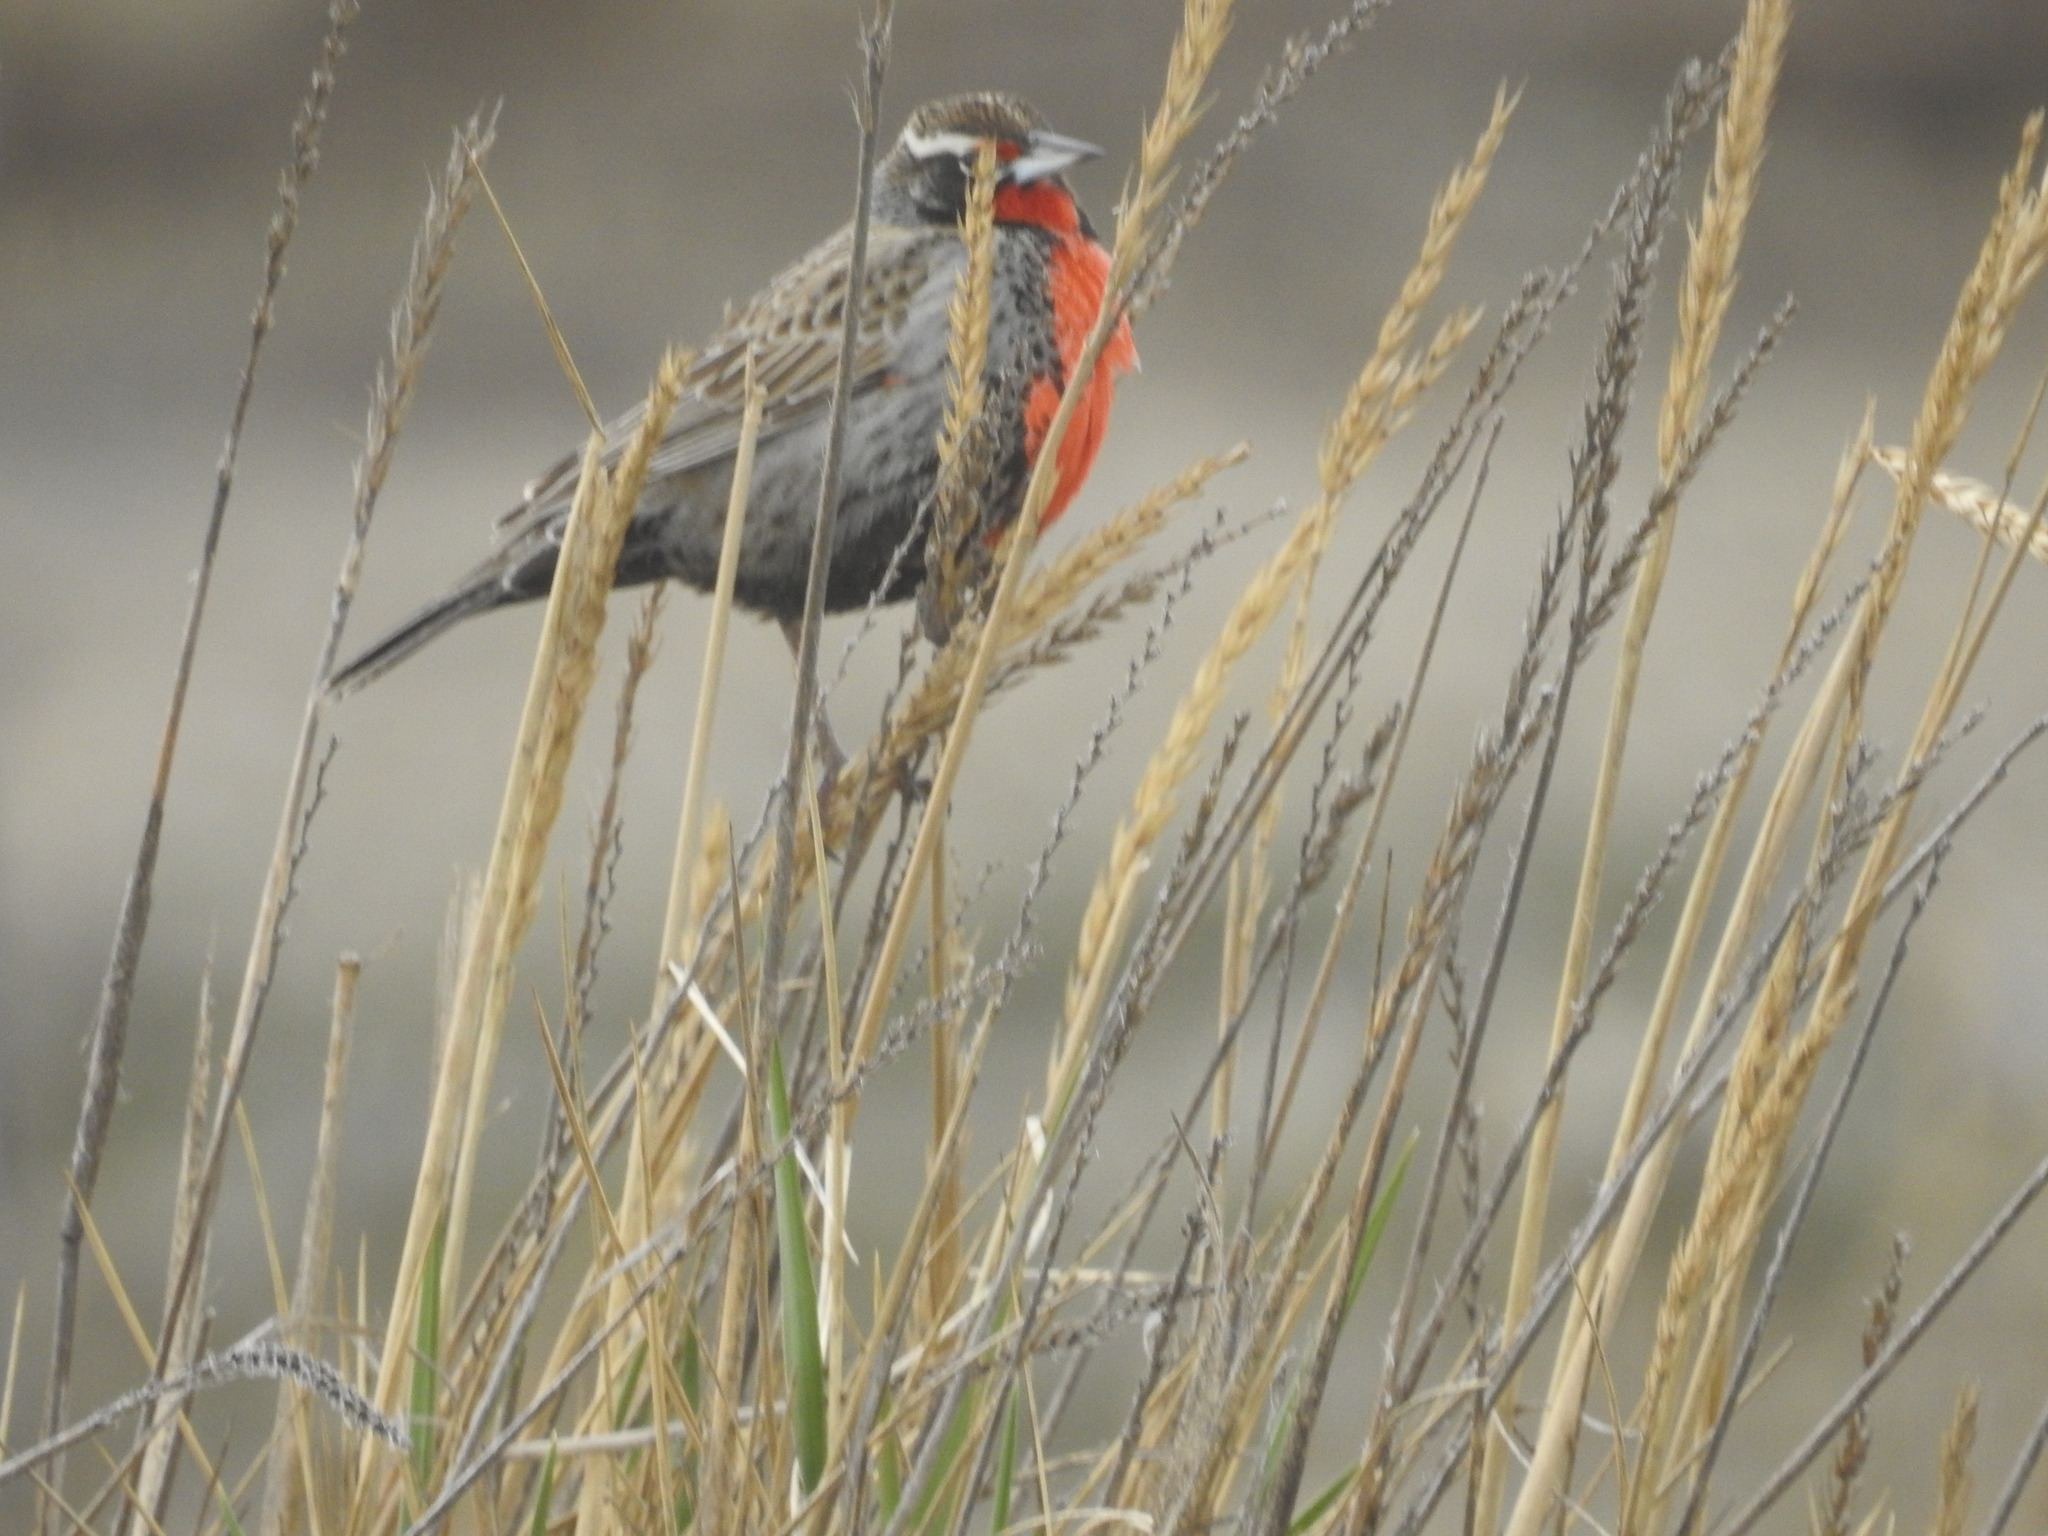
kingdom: Animalia
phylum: Chordata
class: Aves
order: Passeriformes
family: Icteridae
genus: Sturnella
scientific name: Sturnella loyca
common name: Long-tailed meadowlark
